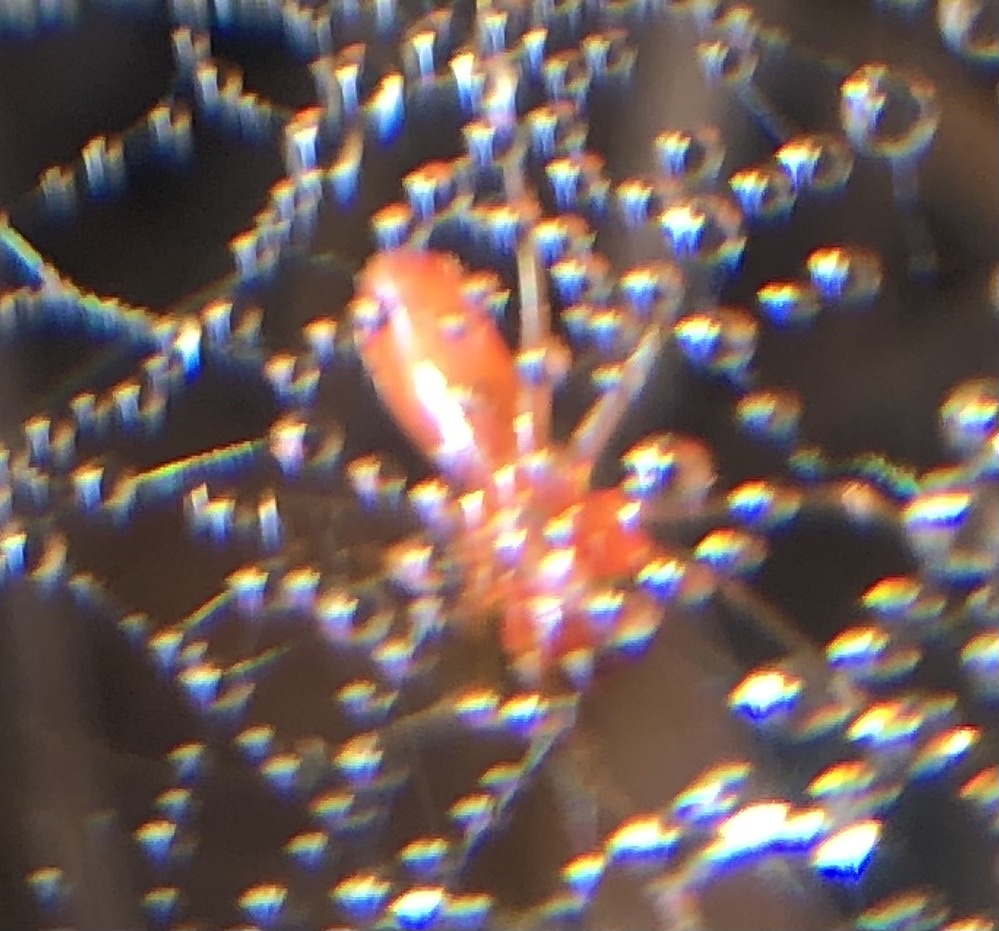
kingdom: Animalia
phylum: Arthropoda
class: Arachnida
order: Araneae
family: Linyphiidae
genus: Florinda
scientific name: Florinda coccinea
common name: Black-tailed red sheetweaver
